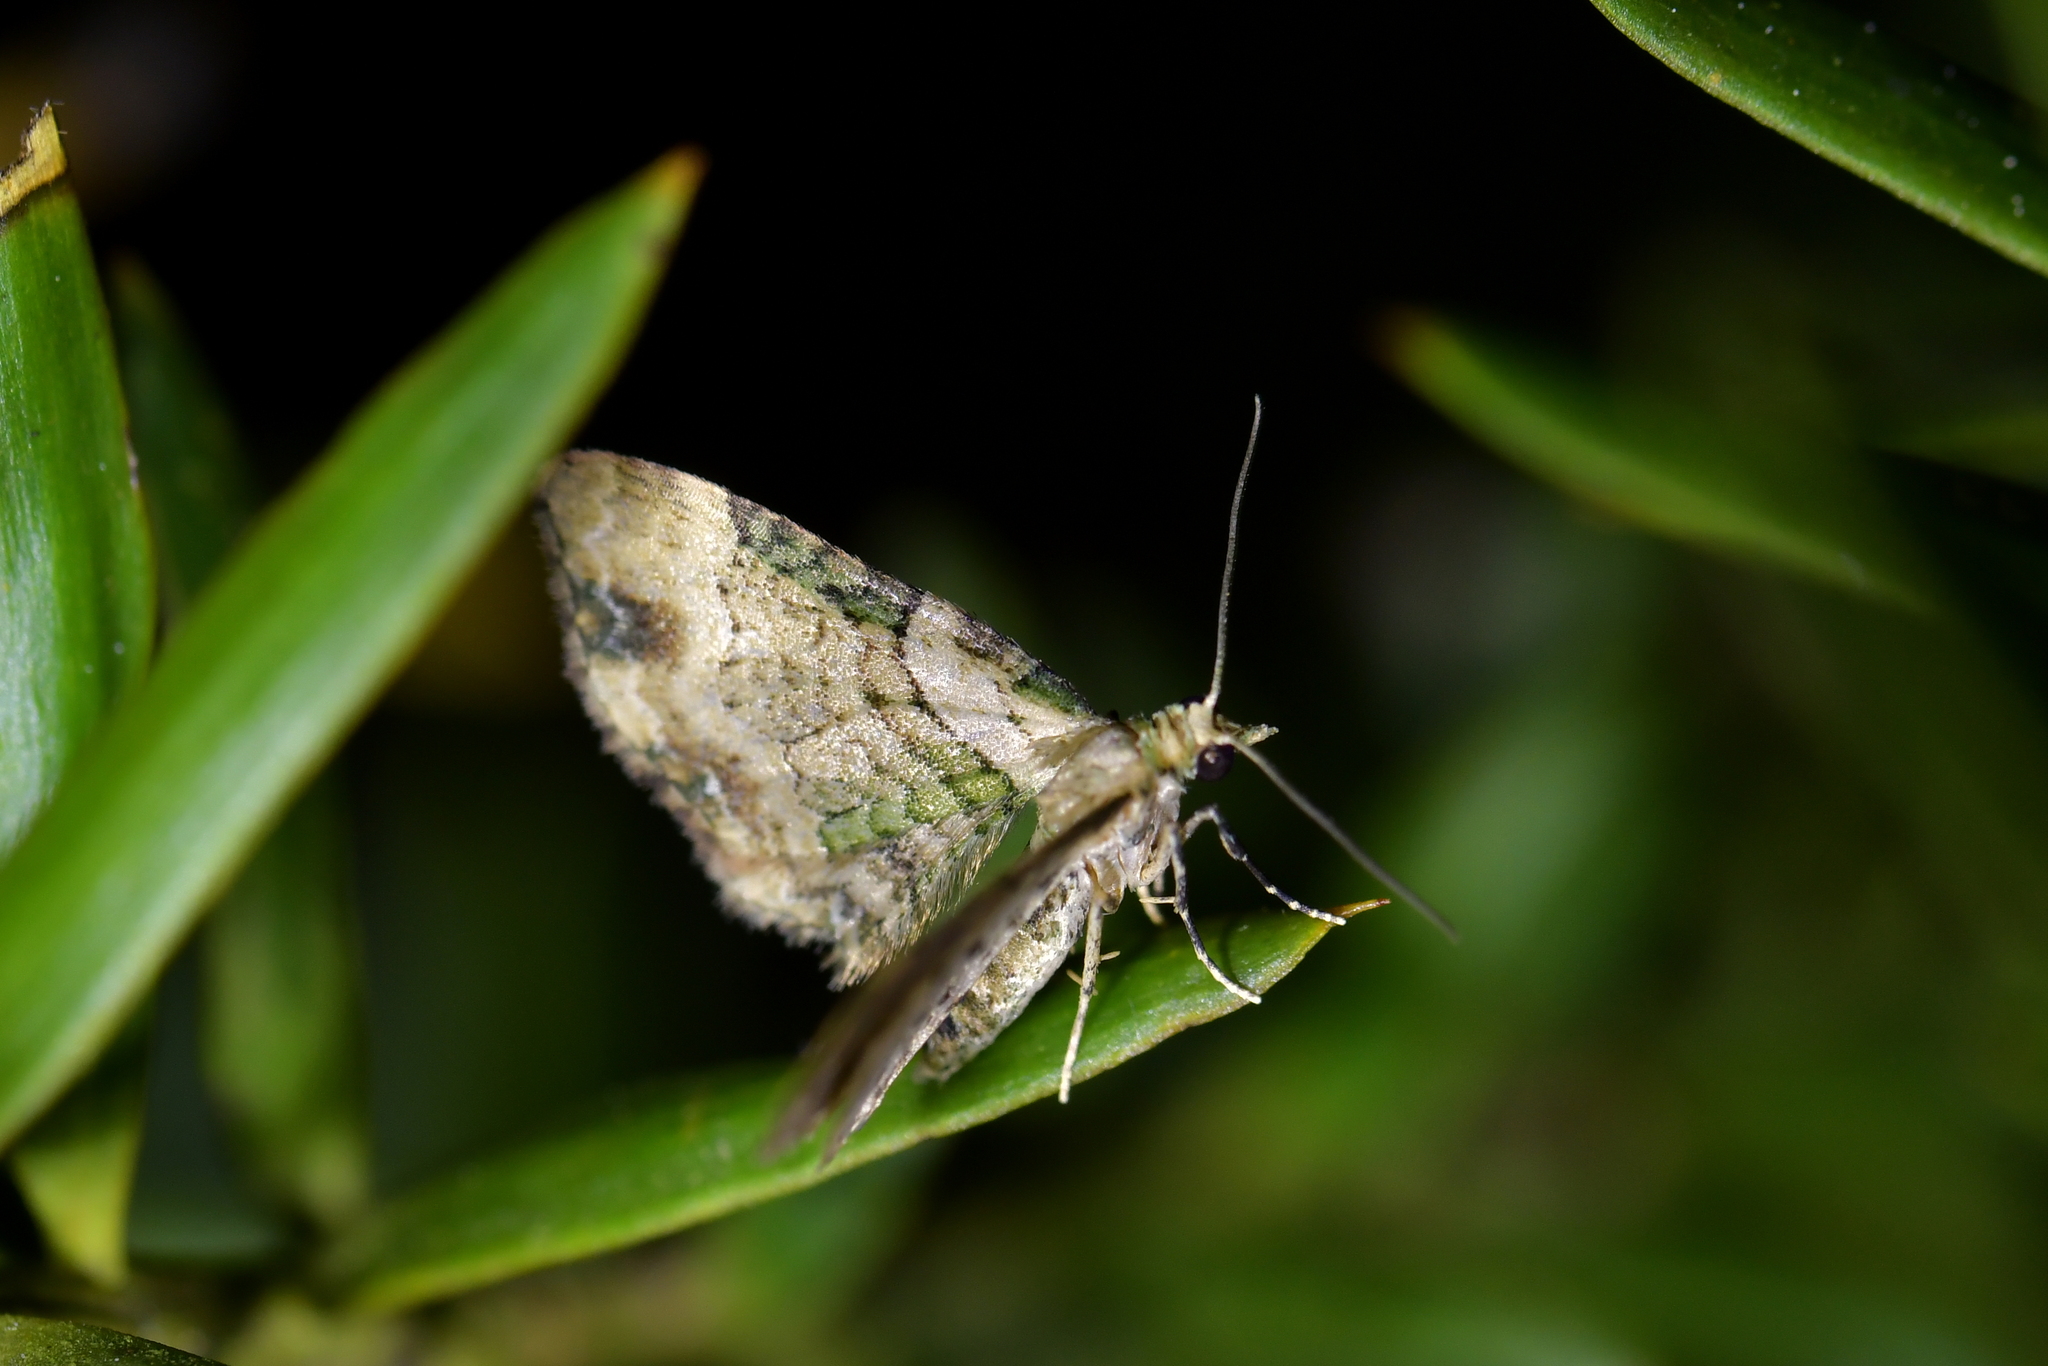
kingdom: Animalia
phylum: Arthropoda
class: Insecta
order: Lepidoptera
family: Geometridae
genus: Chloroclystis
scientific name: Chloroclystis
